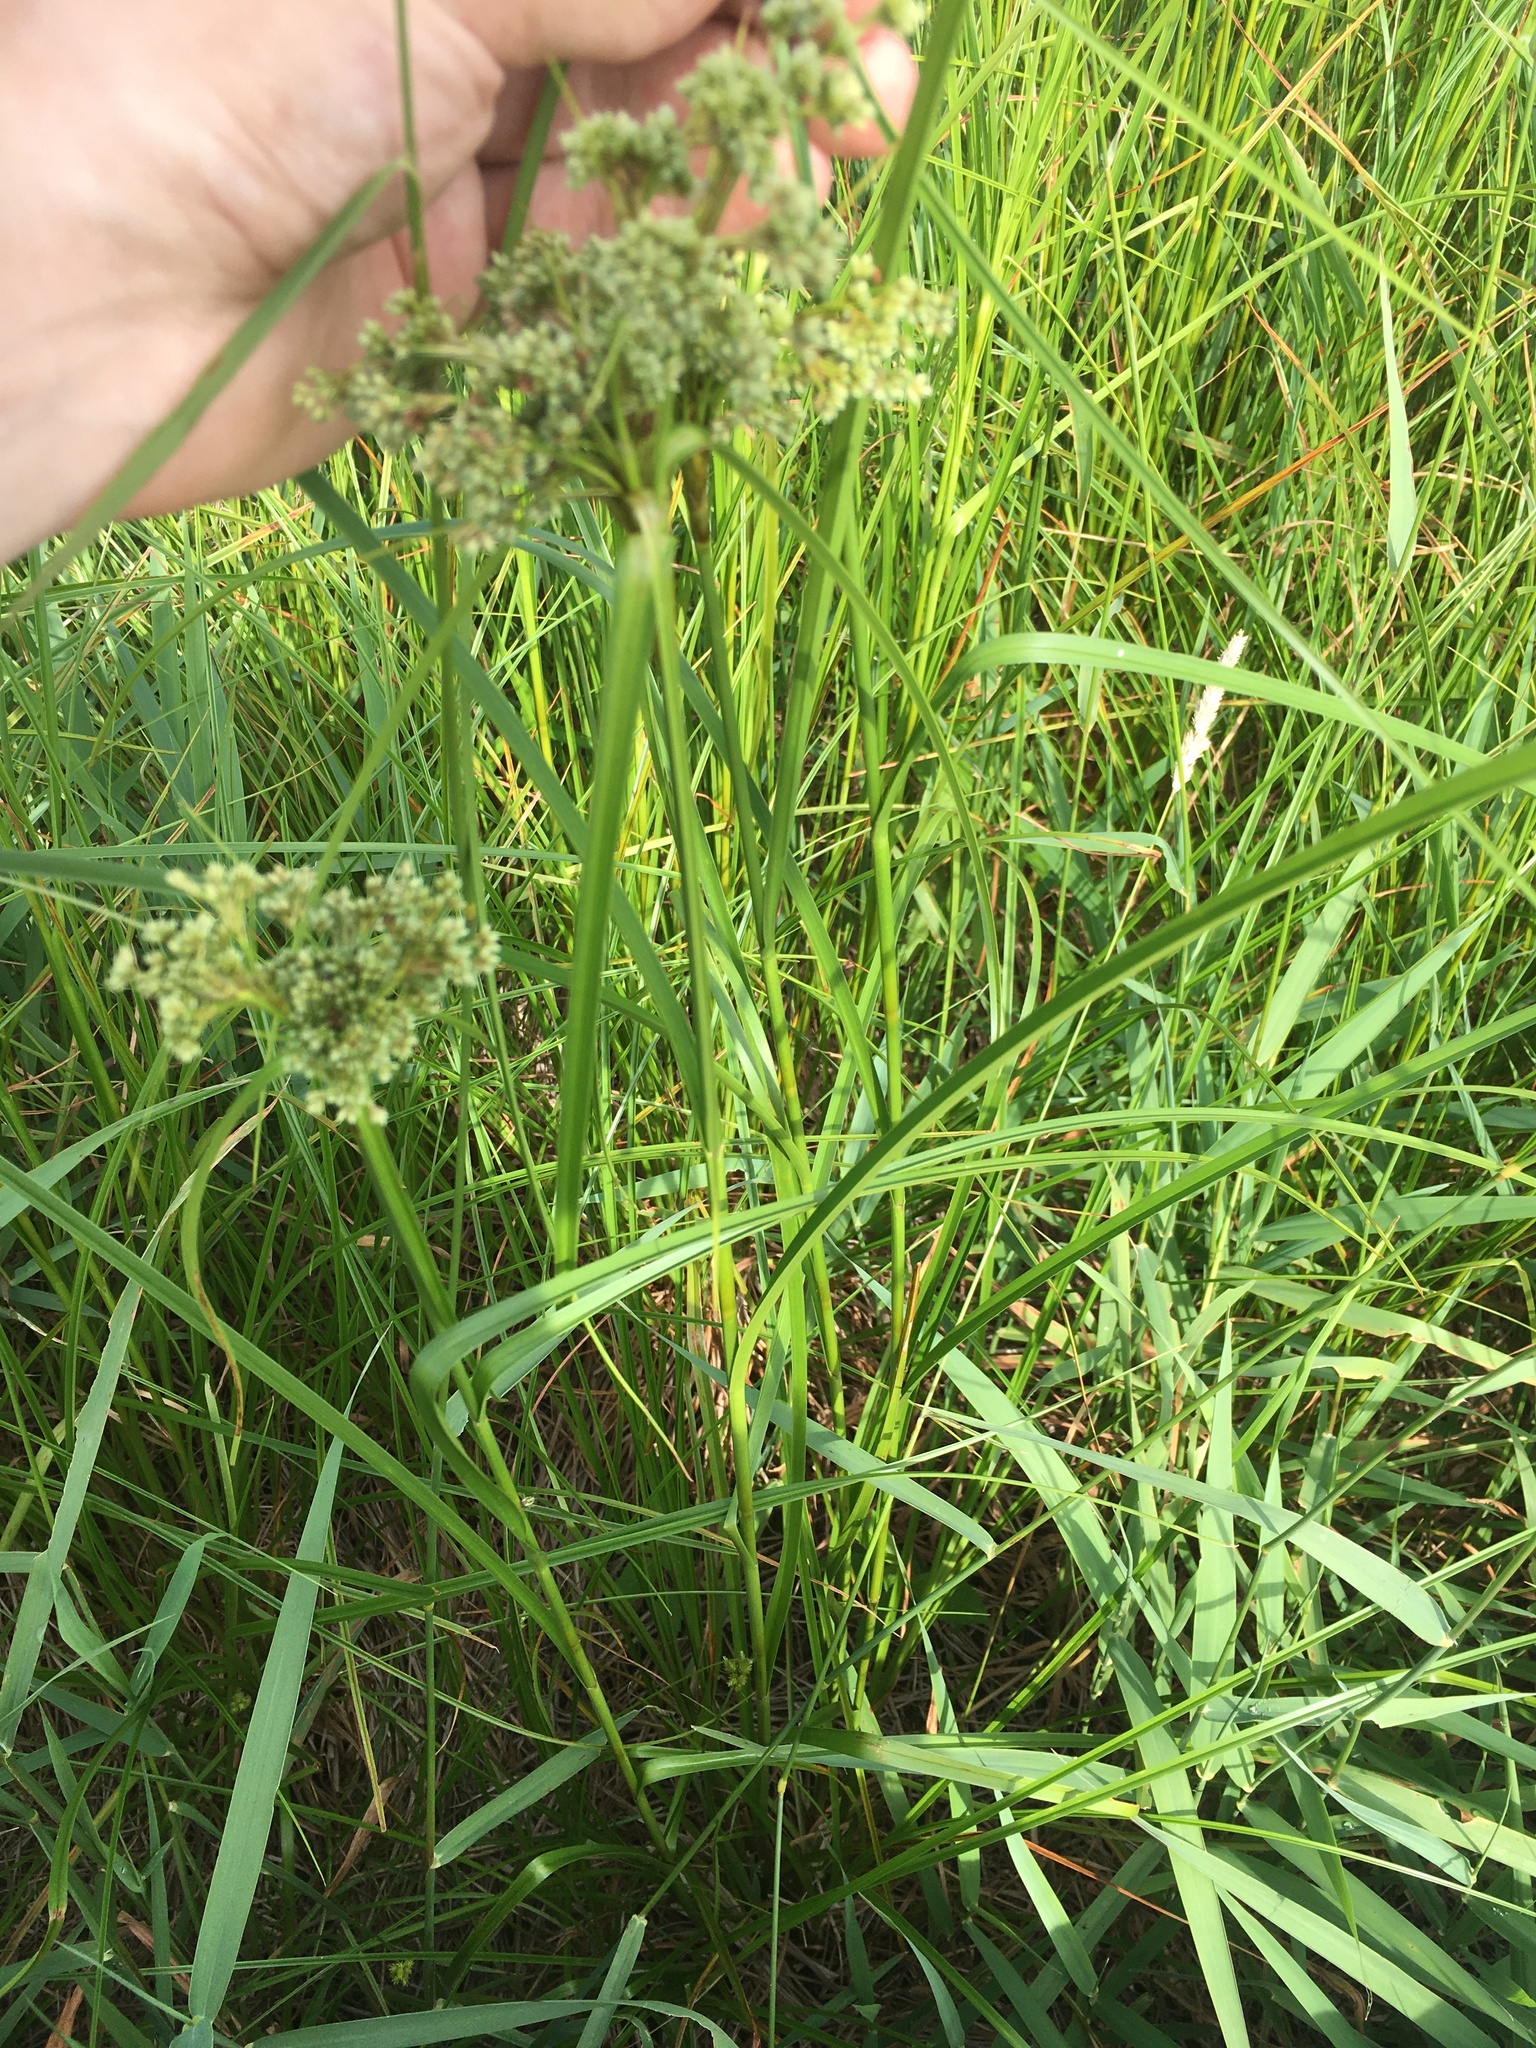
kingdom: Plantae
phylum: Tracheophyta
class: Liliopsida
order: Poales
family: Cyperaceae
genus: Scirpus
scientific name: Scirpus cyperinus
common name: Black-sheathed bulrush
